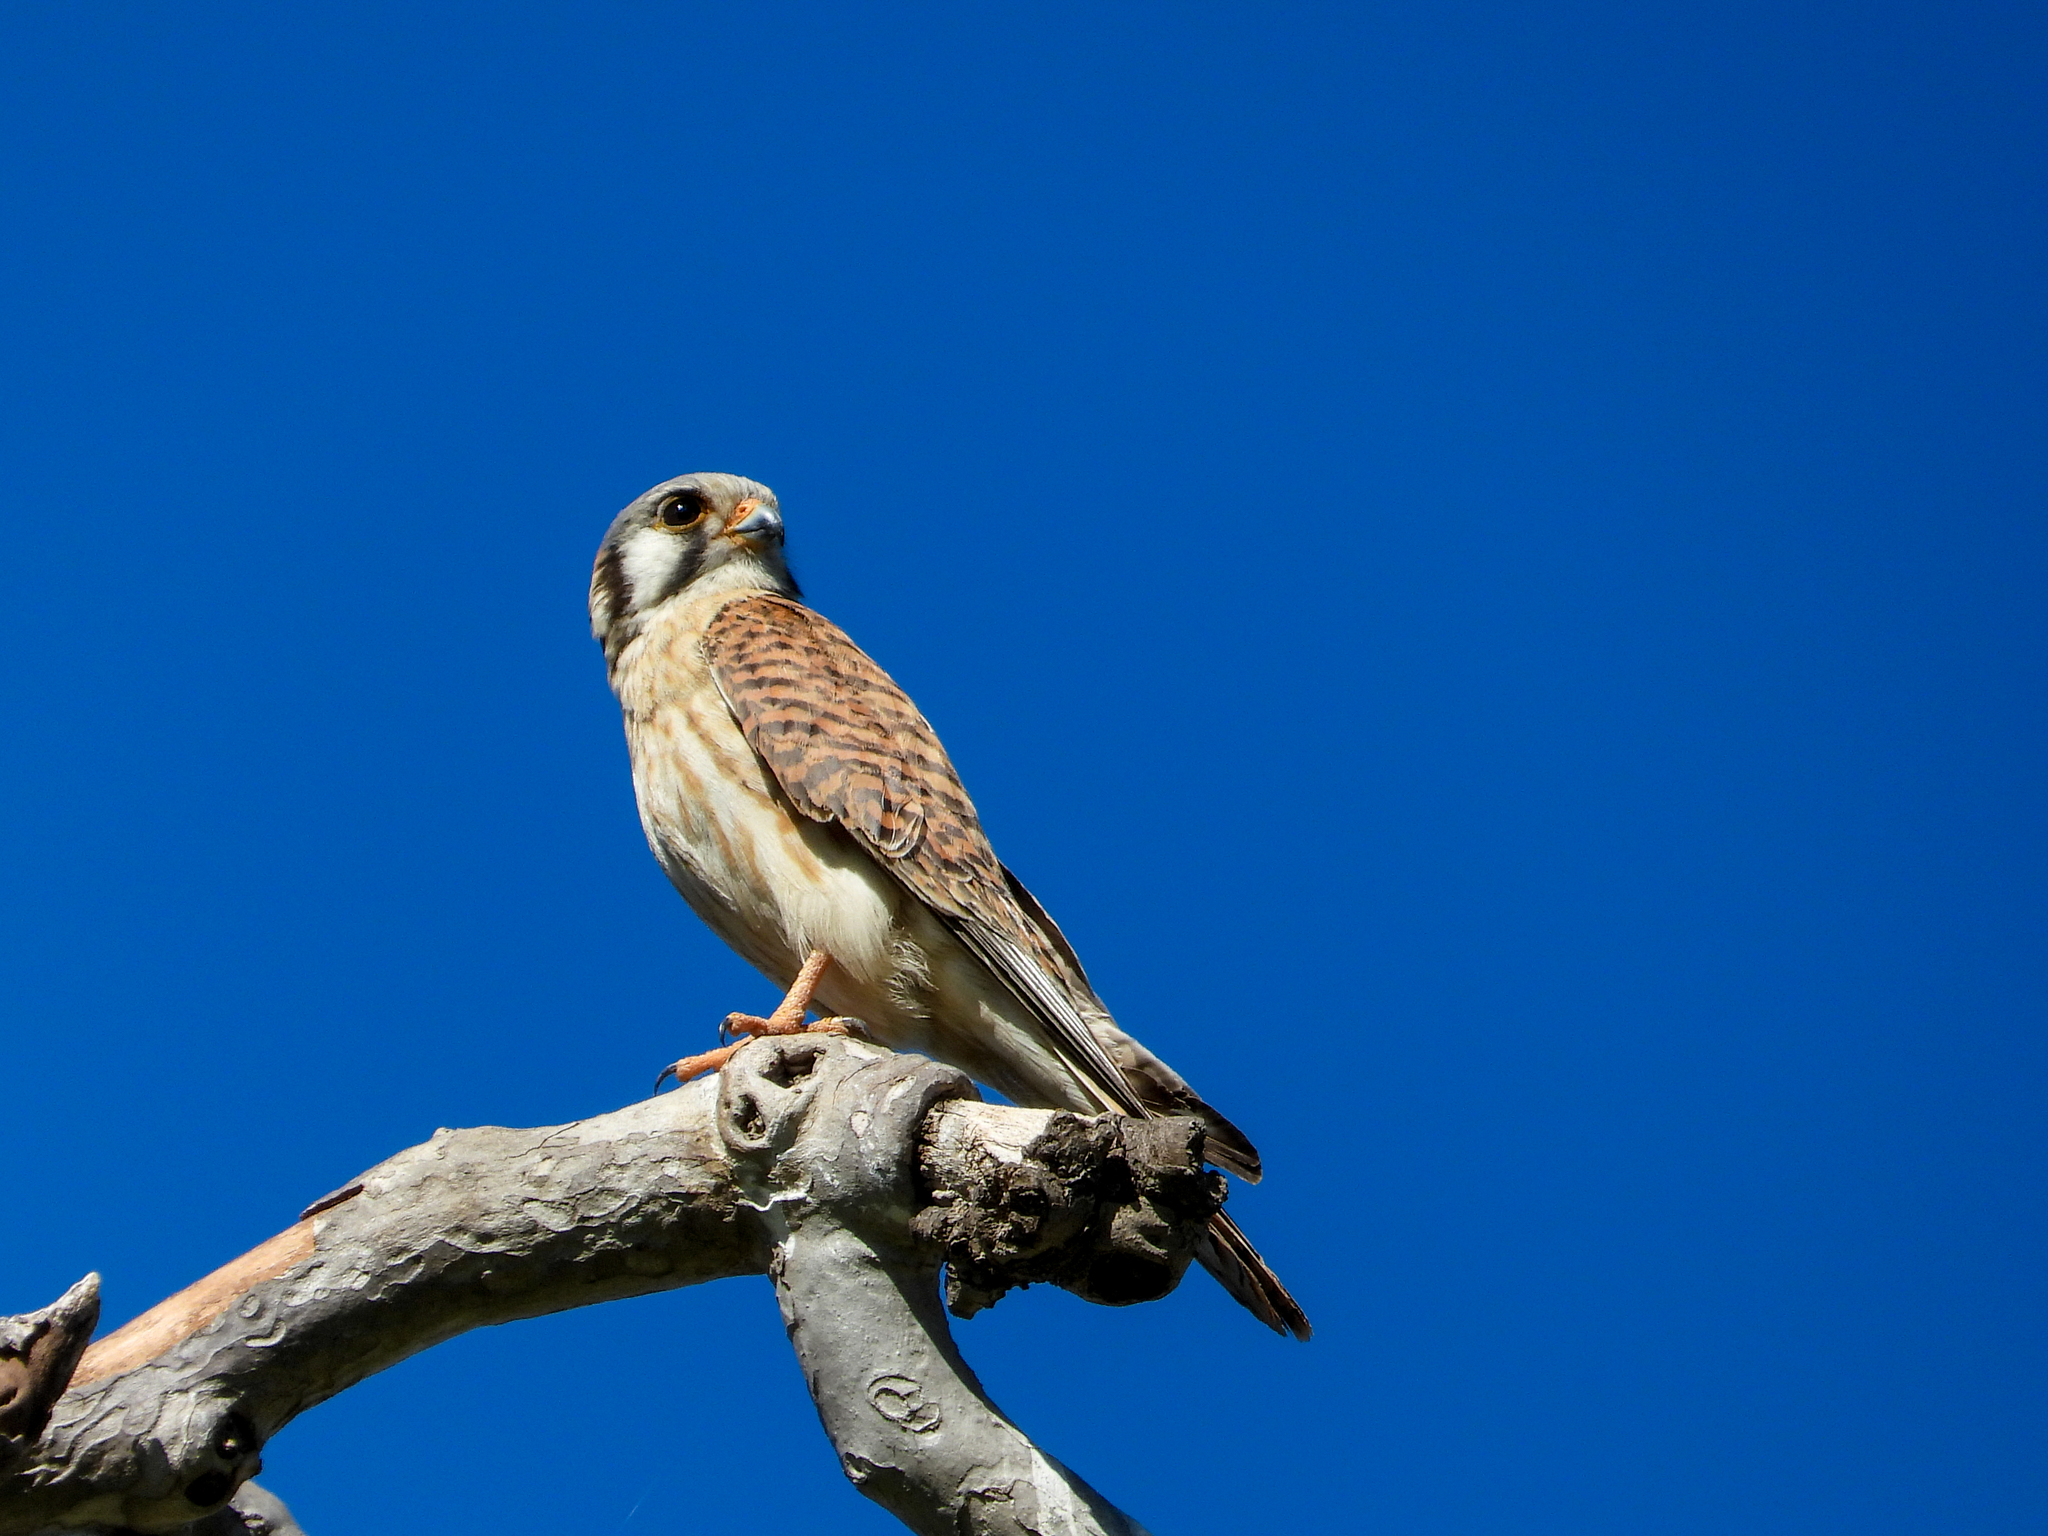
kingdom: Animalia
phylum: Chordata
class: Aves
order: Falconiformes
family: Falconidae
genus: Falco
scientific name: Falco sparverius
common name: American kestrel
